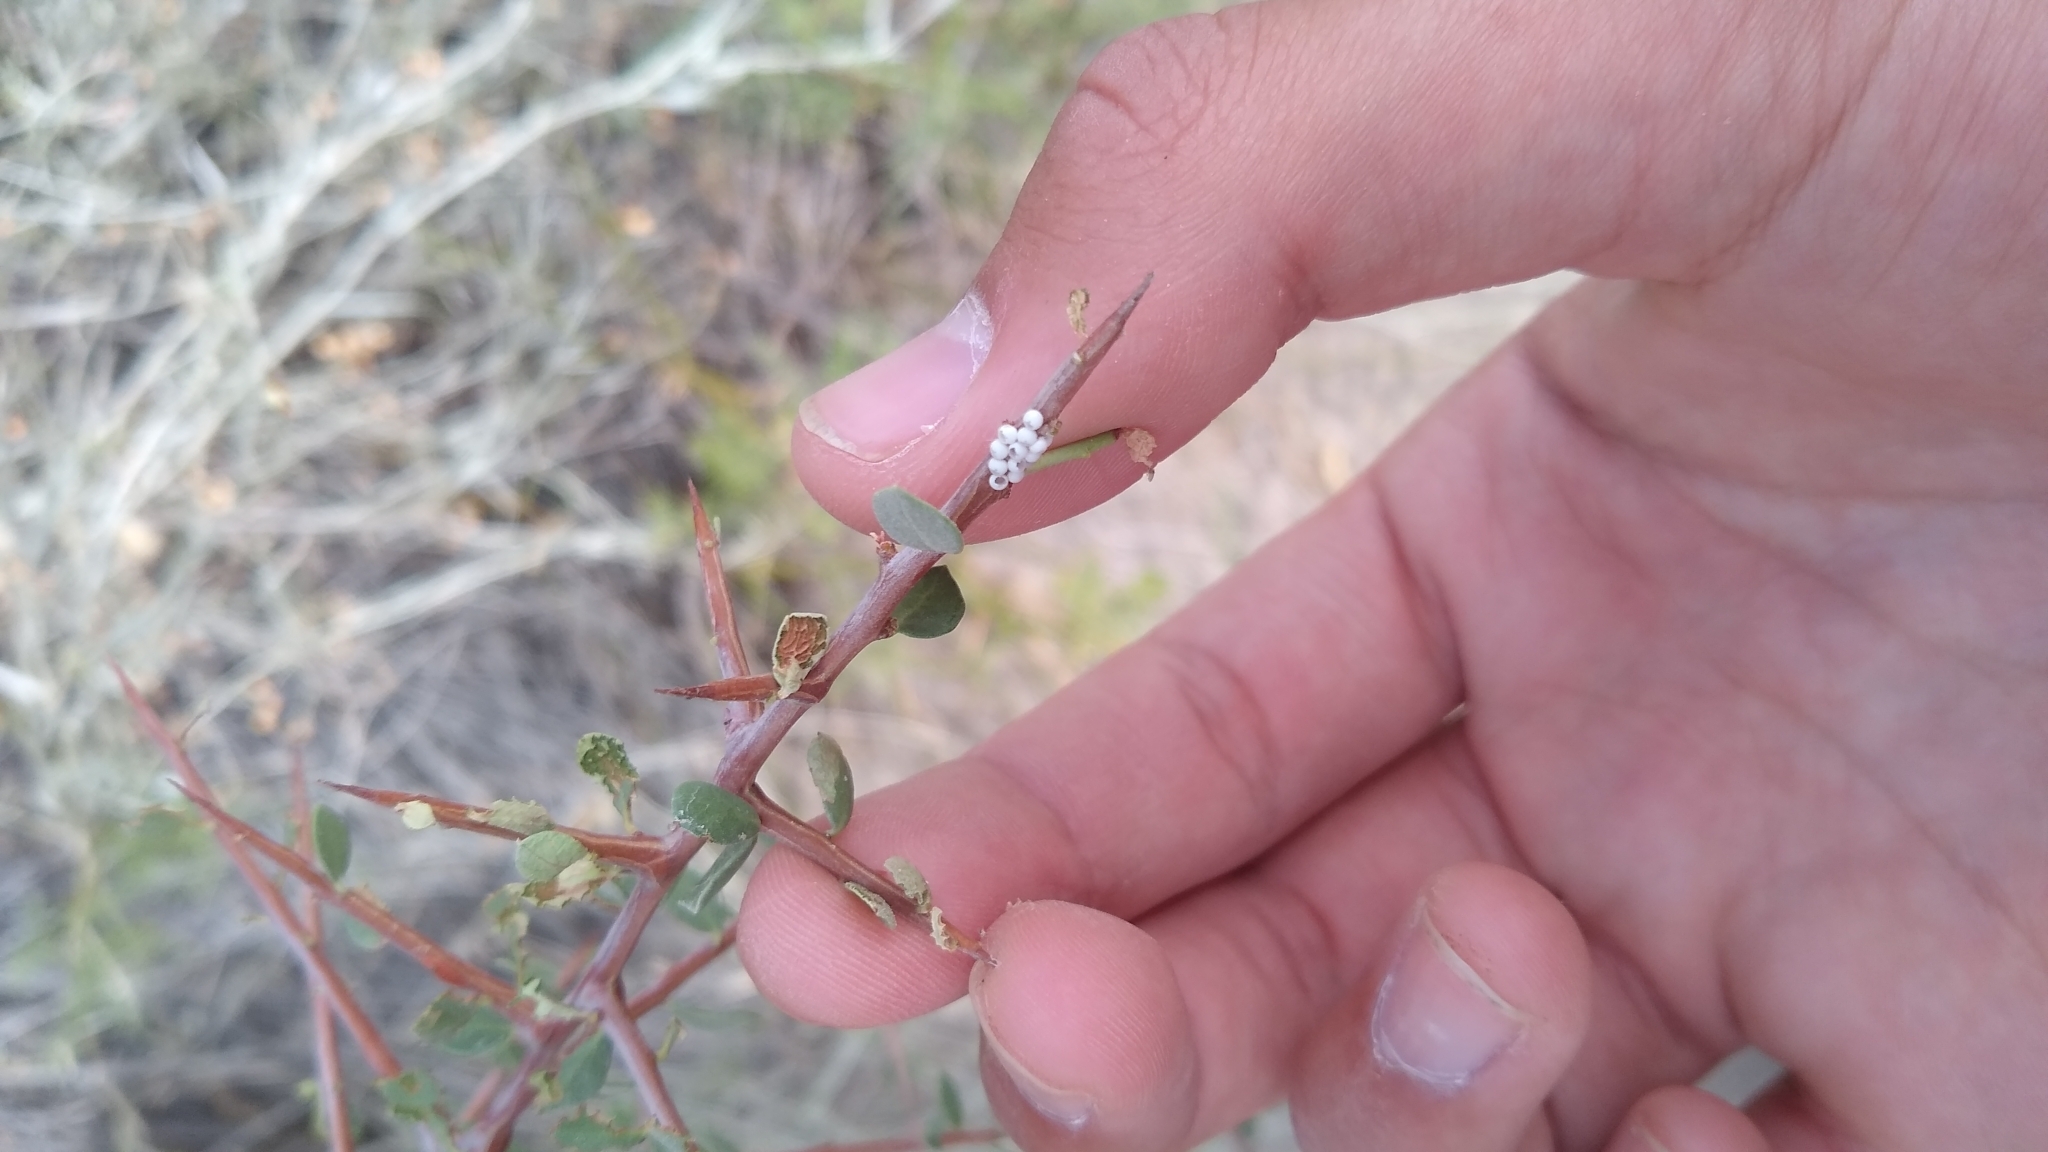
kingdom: Animalia
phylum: Arthropoda
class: Insecta
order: Lepidoptera
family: Notodontidae
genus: Tecmessa
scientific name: Tecmessa
